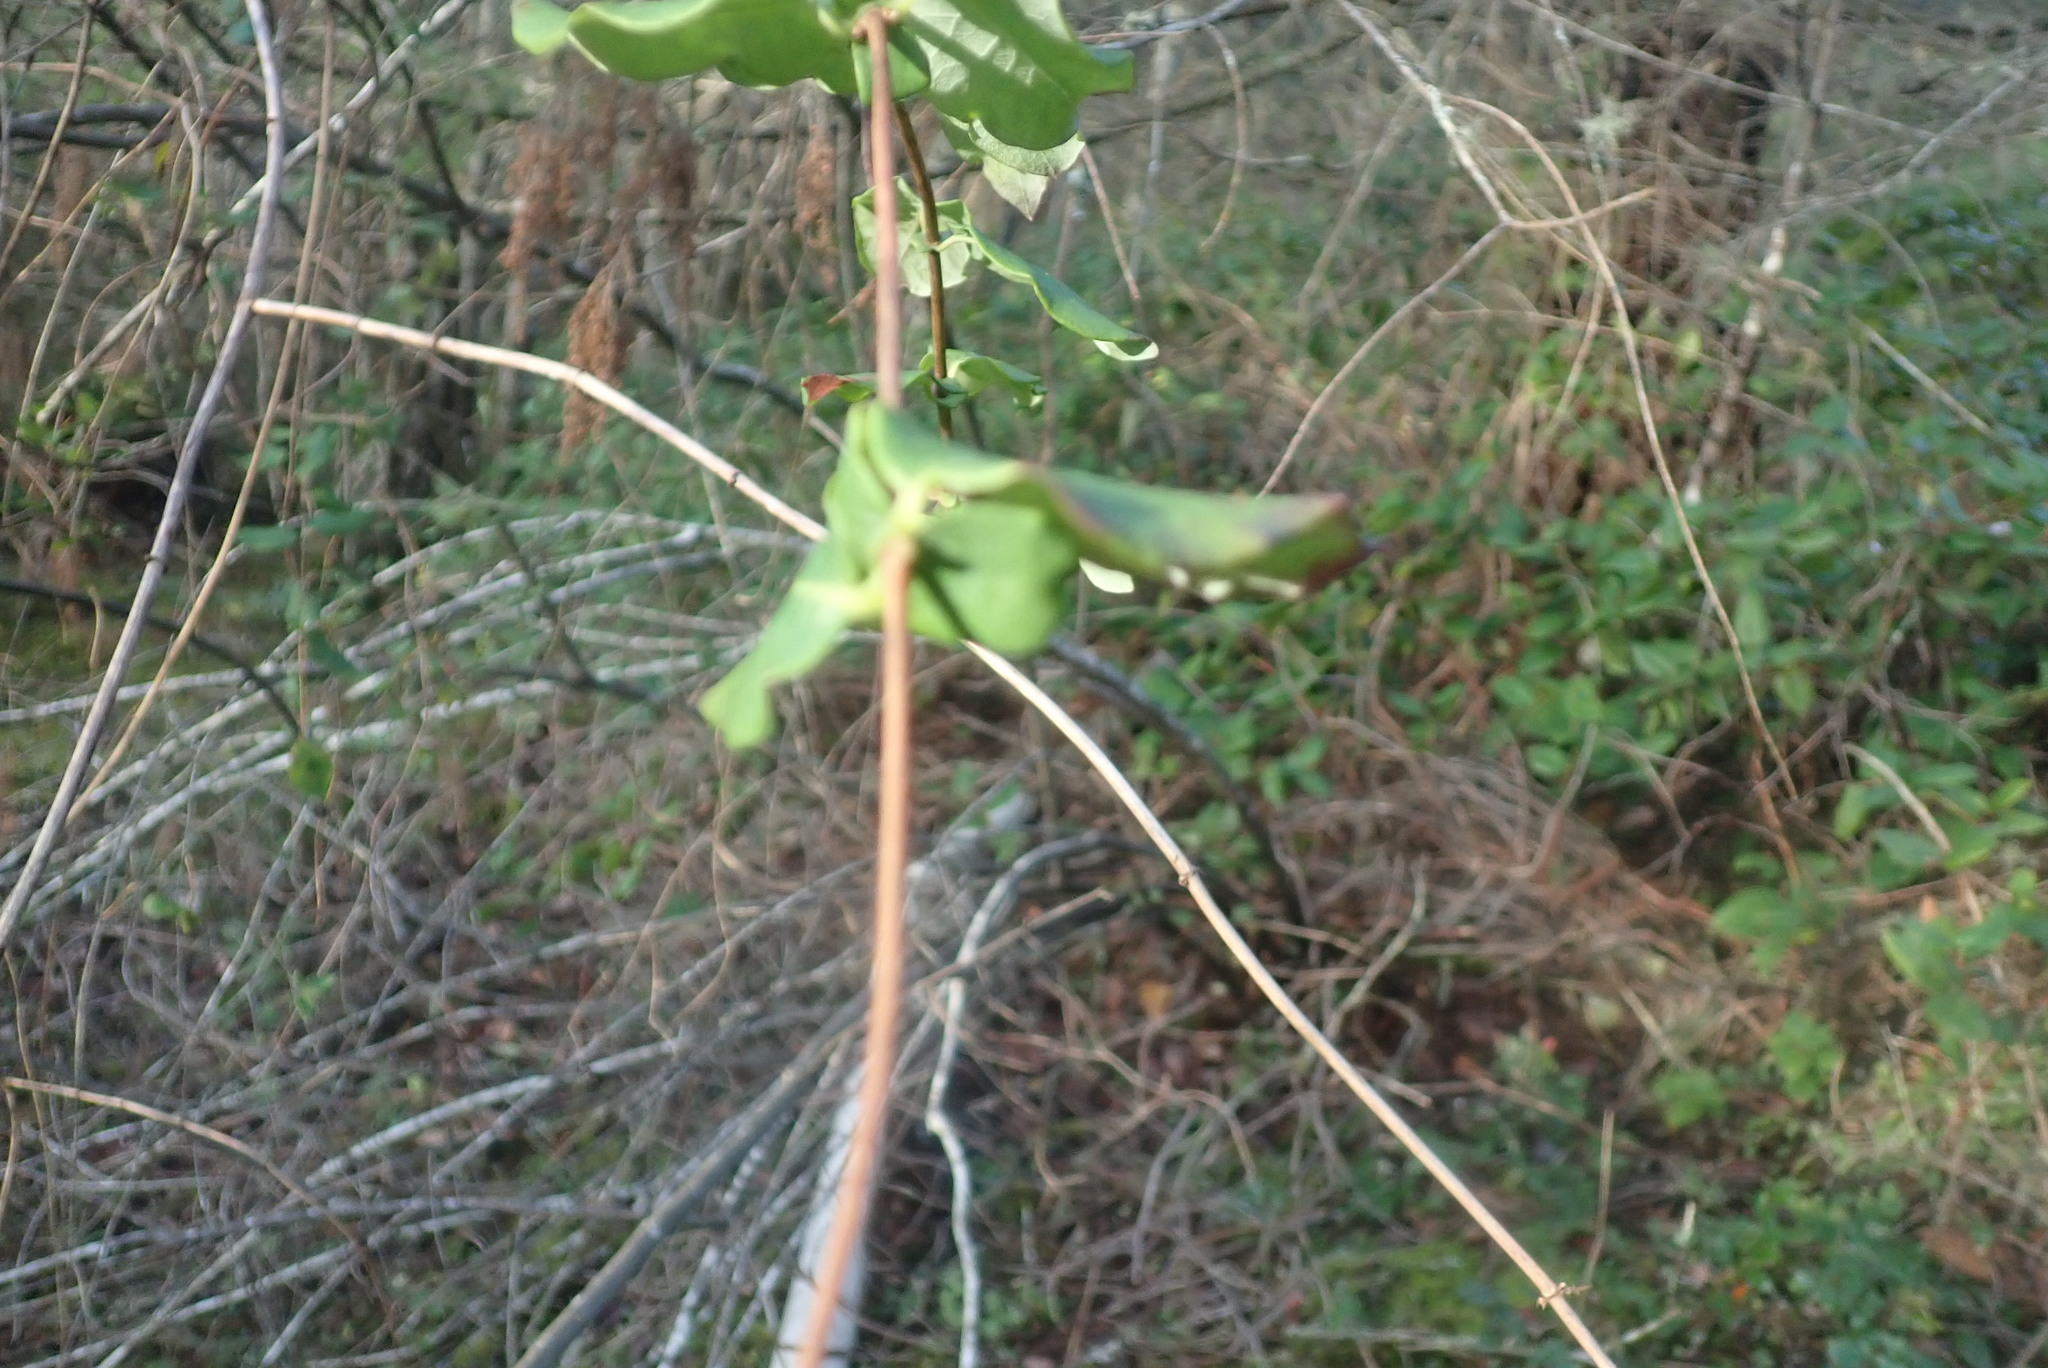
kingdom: Plantae
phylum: Tracheophyta
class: Magnoliopsida
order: Dipsacales
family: Caprifoliaceae
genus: Lonicera
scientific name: Lonicera hispidula
